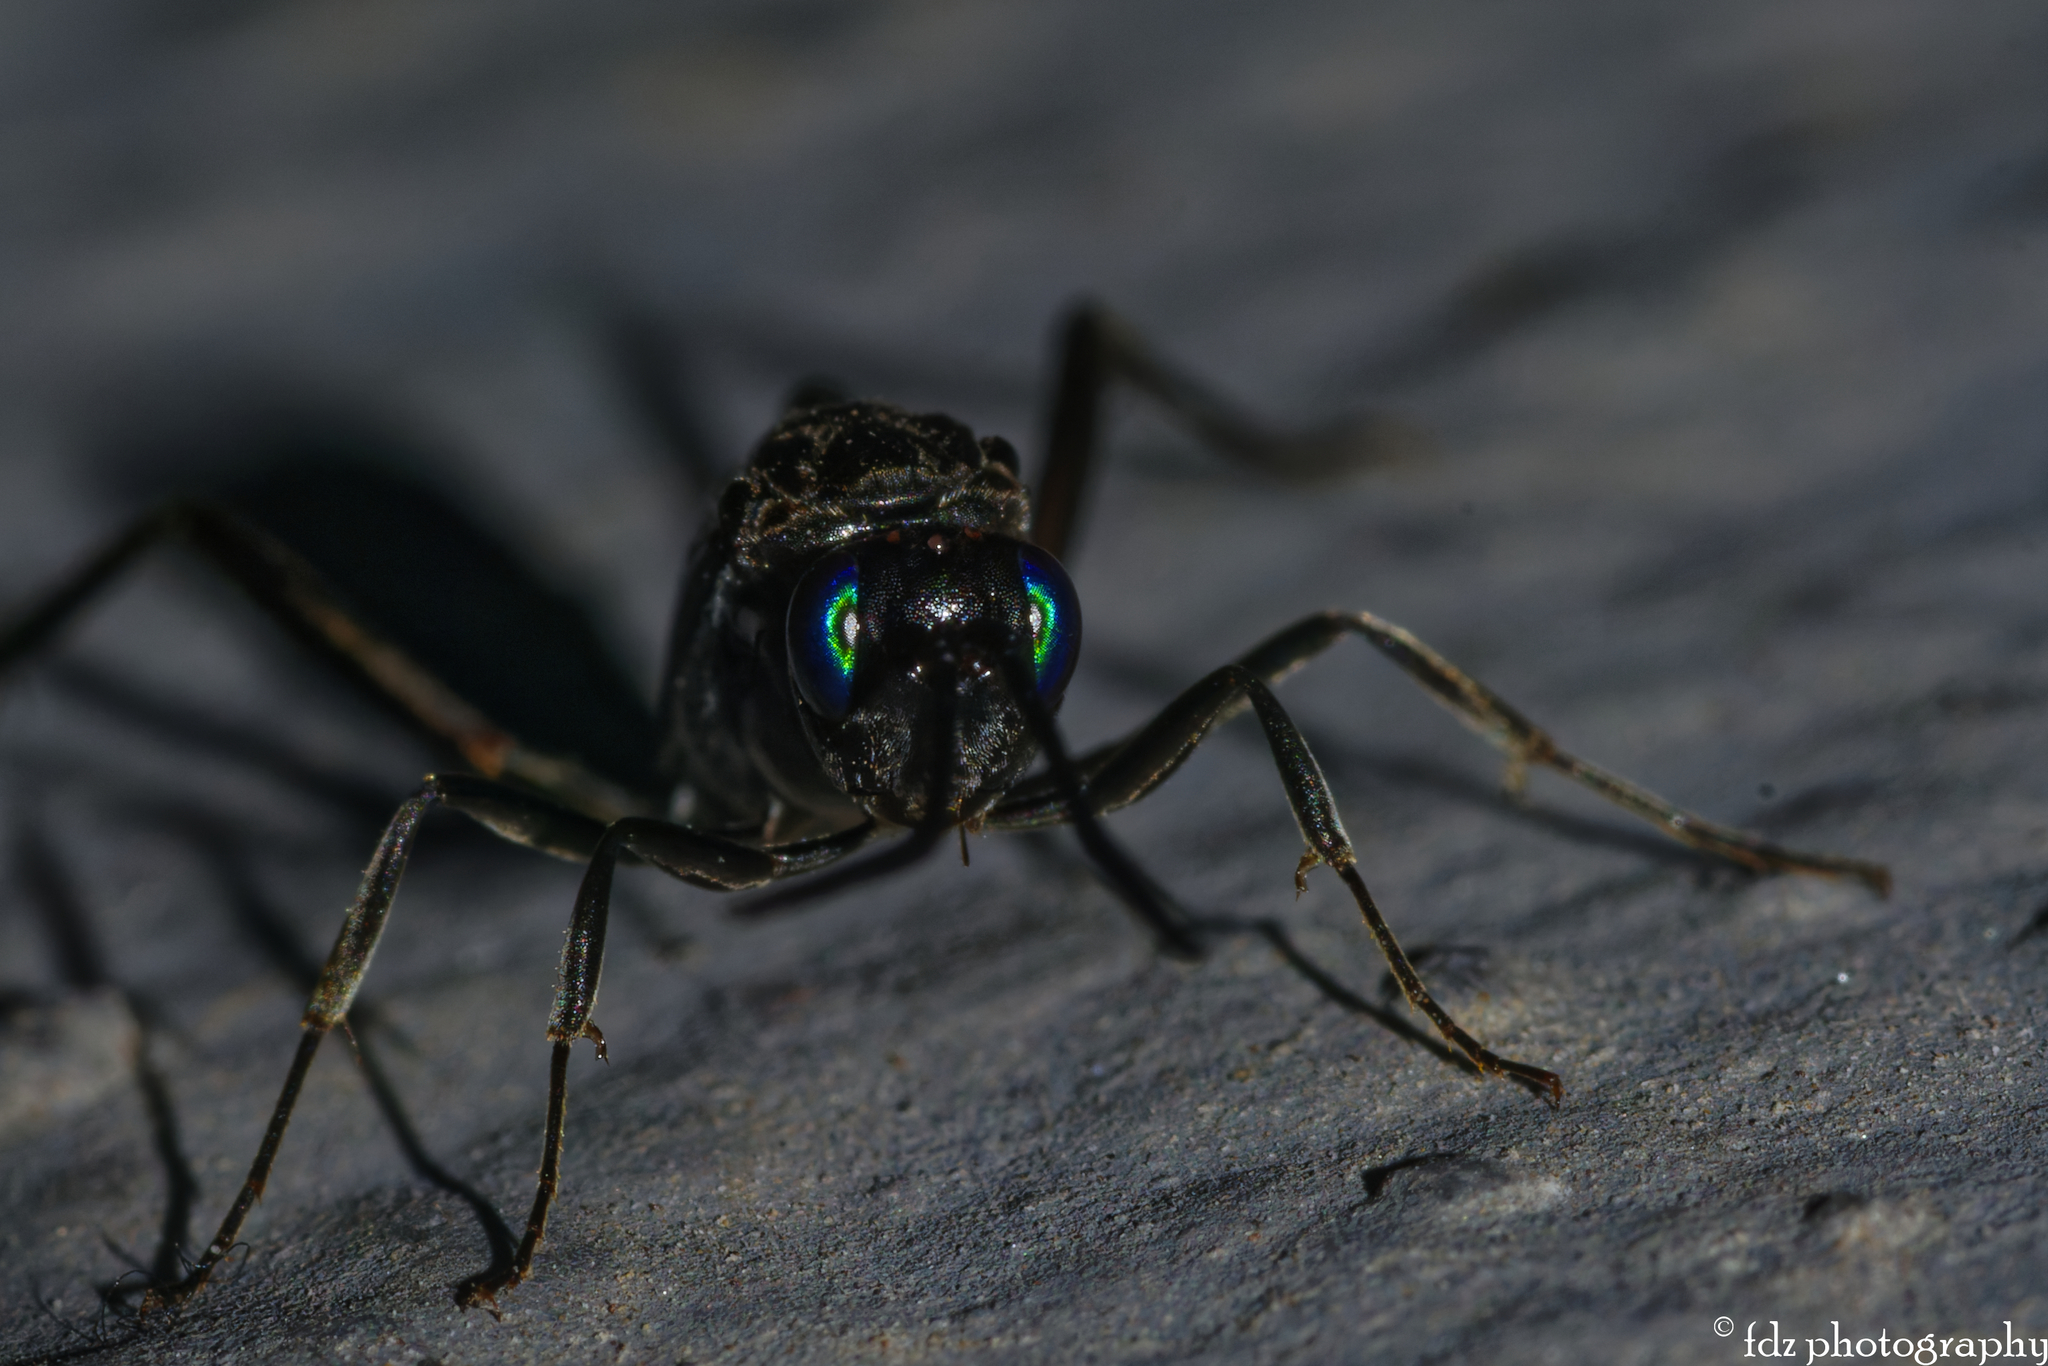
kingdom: Animalia
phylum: Arthropoda
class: Insecta
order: Hymenoptera
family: Evaniidae
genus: Evania
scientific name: Evania appendigaster
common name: Ensign wasp
